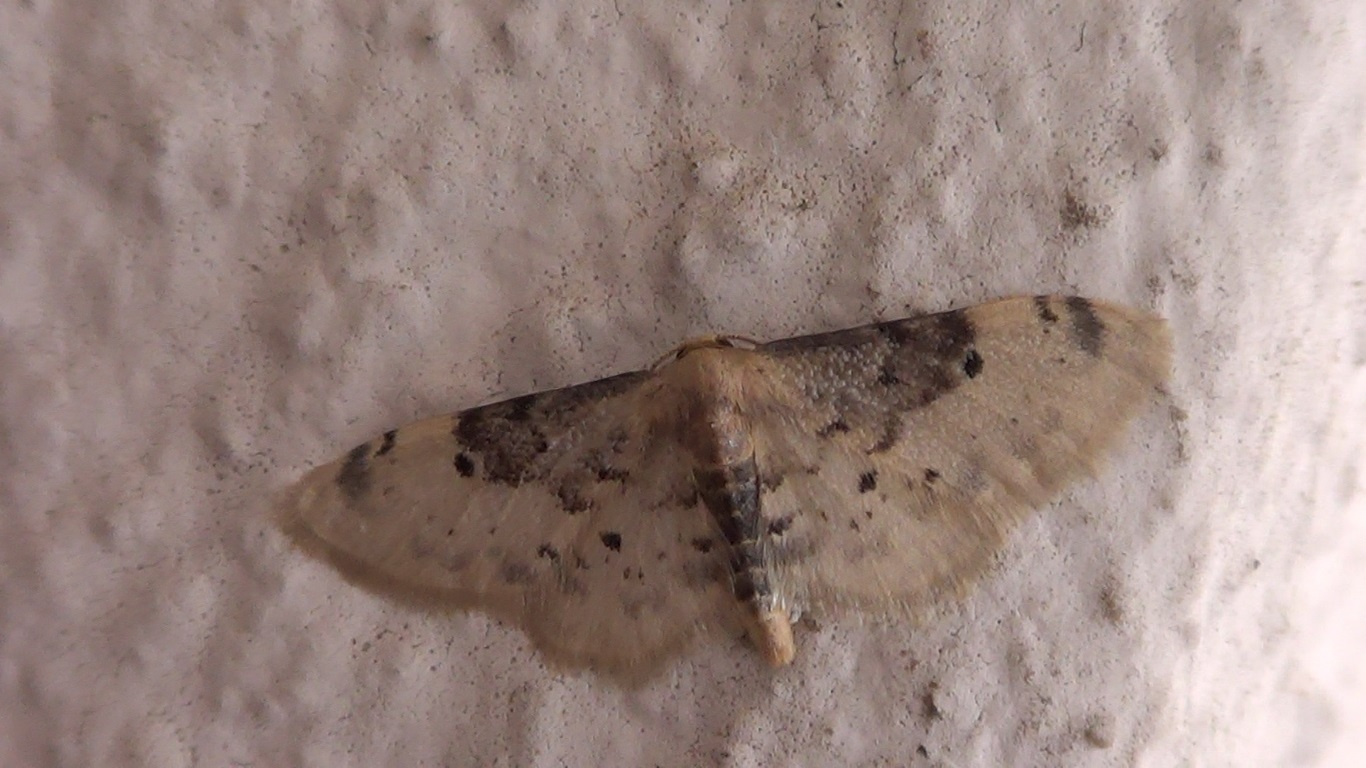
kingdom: Animalia
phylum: Arthropoda
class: Insecta
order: Lepidoptera
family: Geometridae
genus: Idaea
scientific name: Idaea filicata
